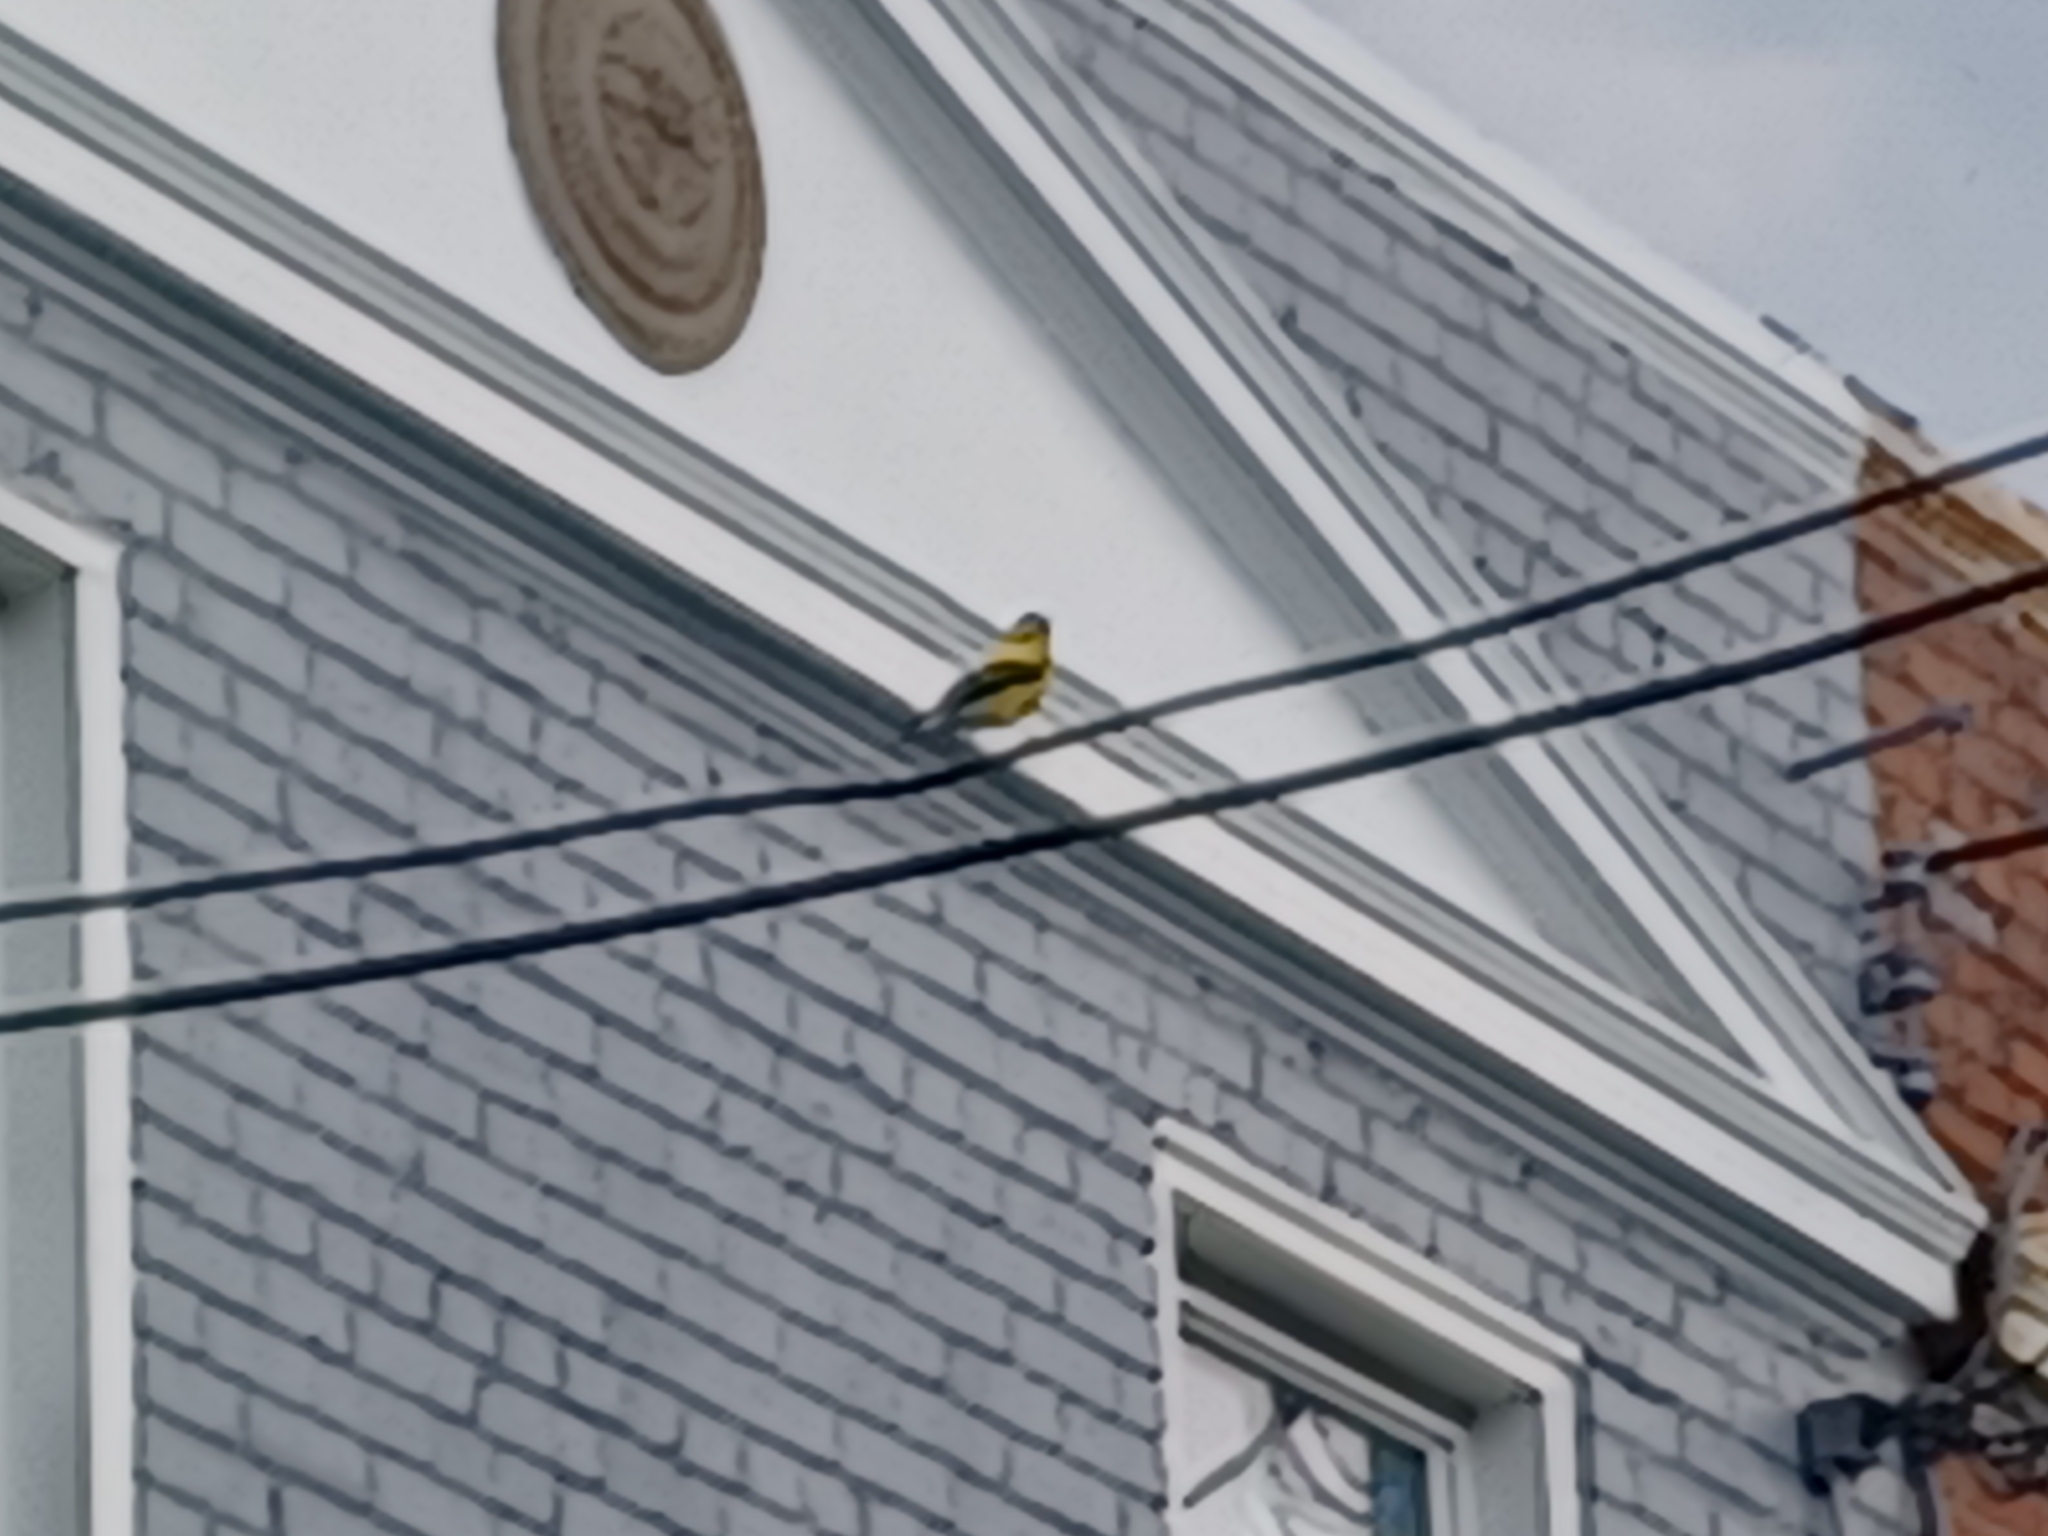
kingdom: Animalia
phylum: Chordata
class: Aves
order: Passeriformes
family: Fringillidae
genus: Spinus
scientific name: Spinus tristis
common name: American goldfinch
